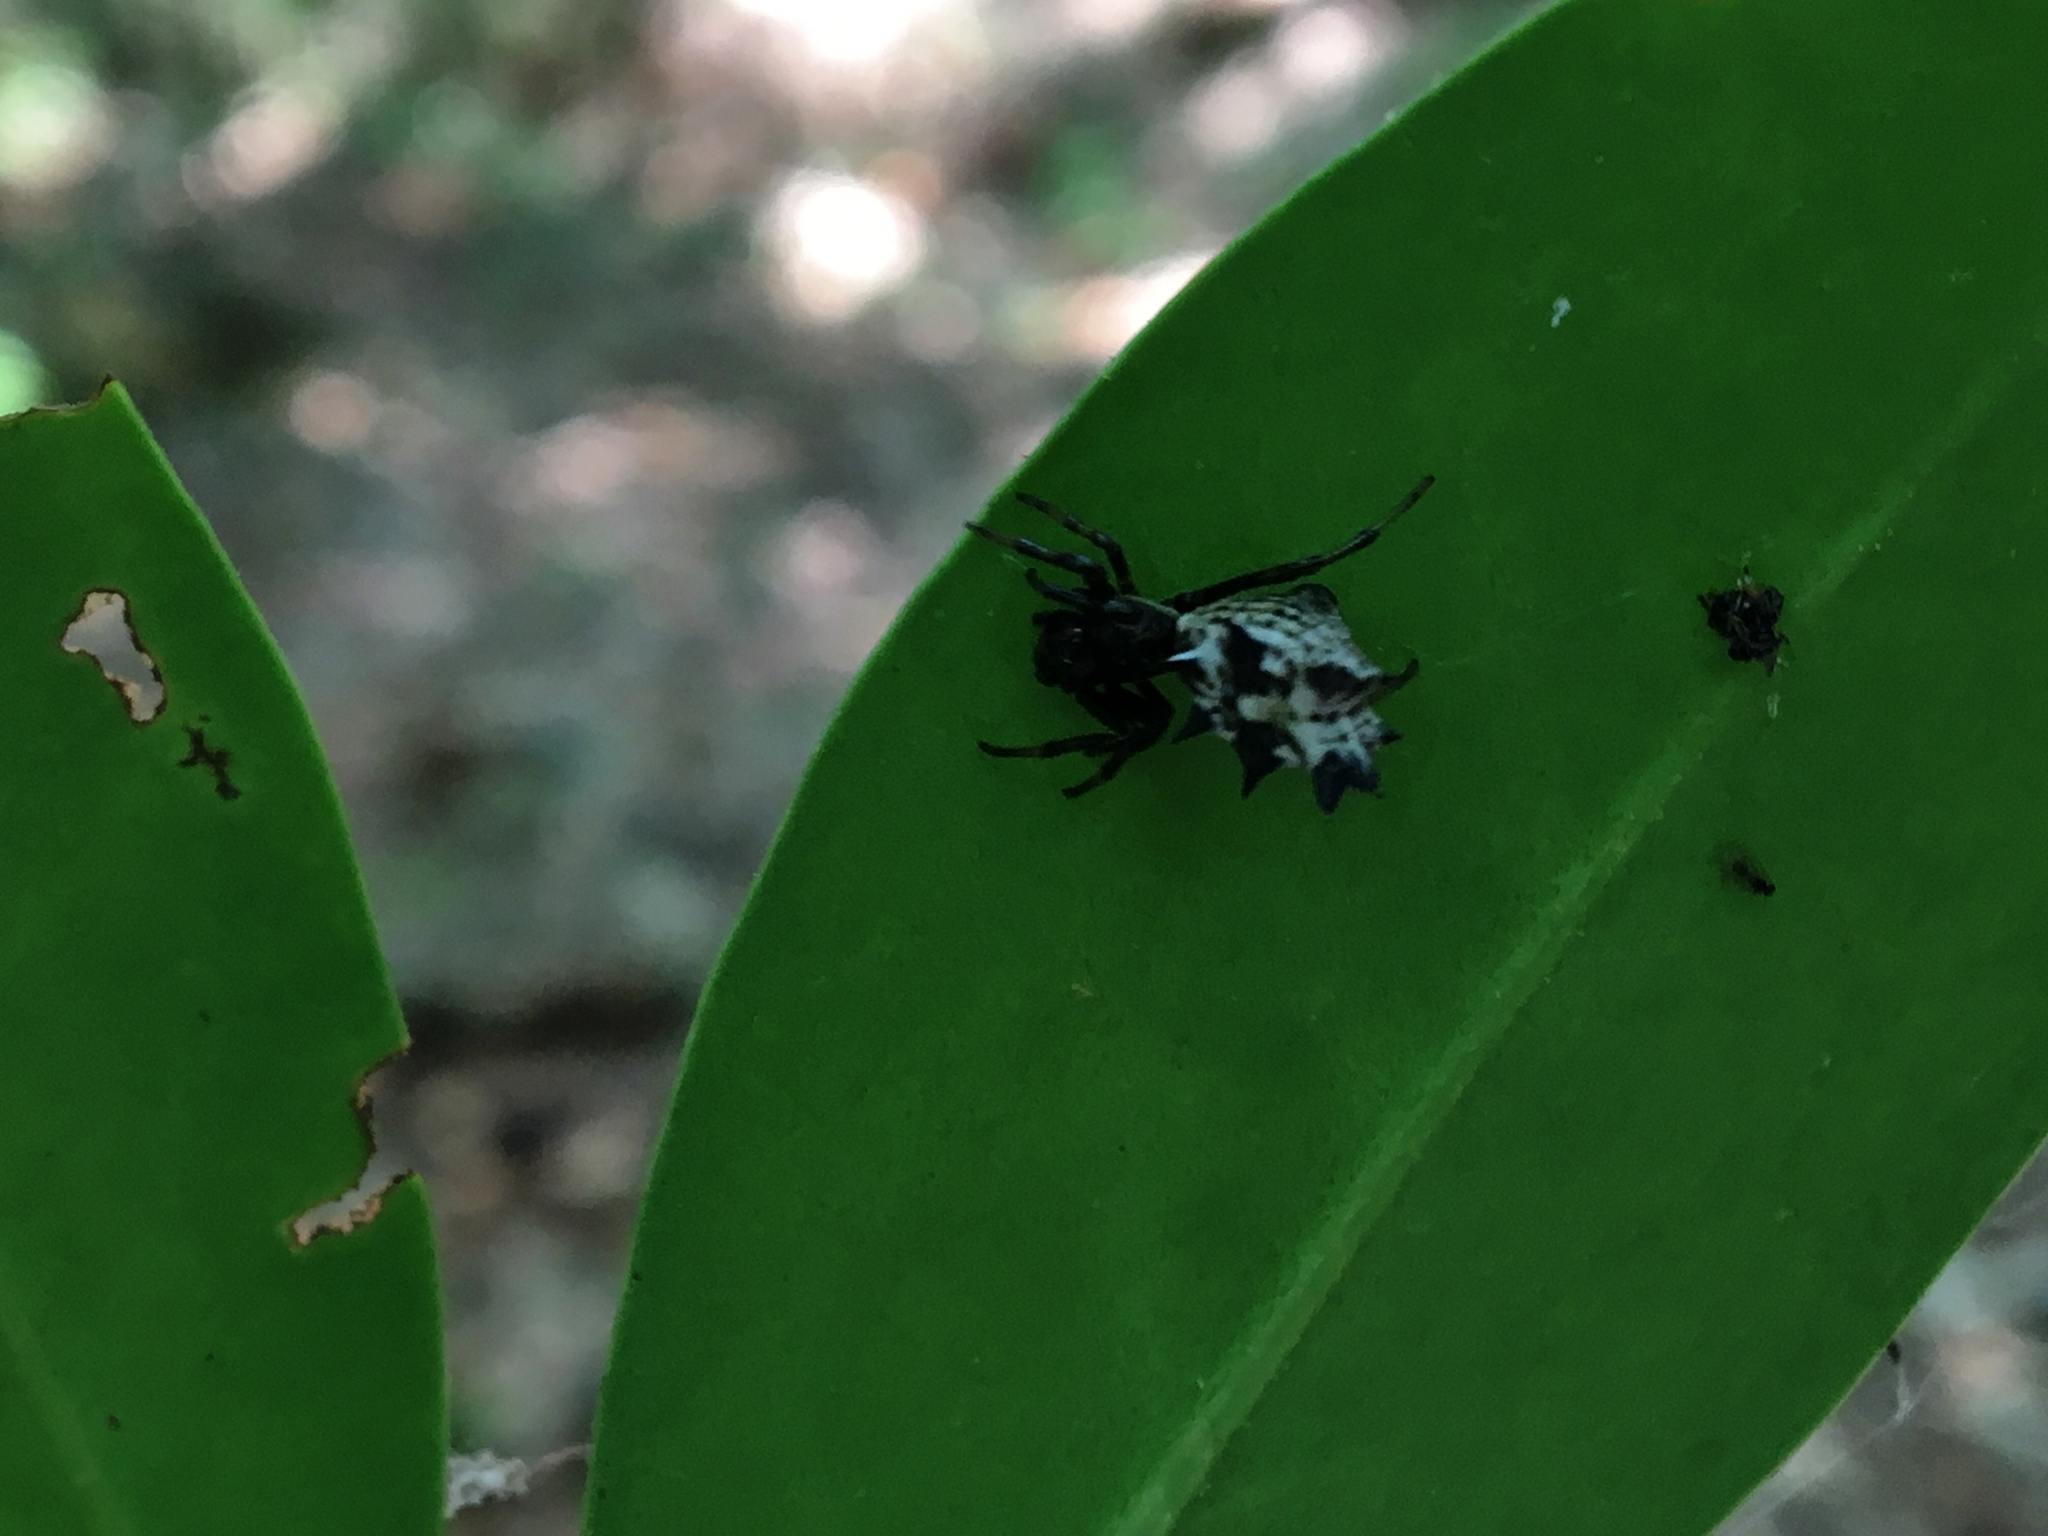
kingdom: Animalia
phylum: Arthropoda
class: Arachnida
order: Araneae
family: Araneidae
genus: Micrathena
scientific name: Micrathena gracilis
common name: Orb weavers
